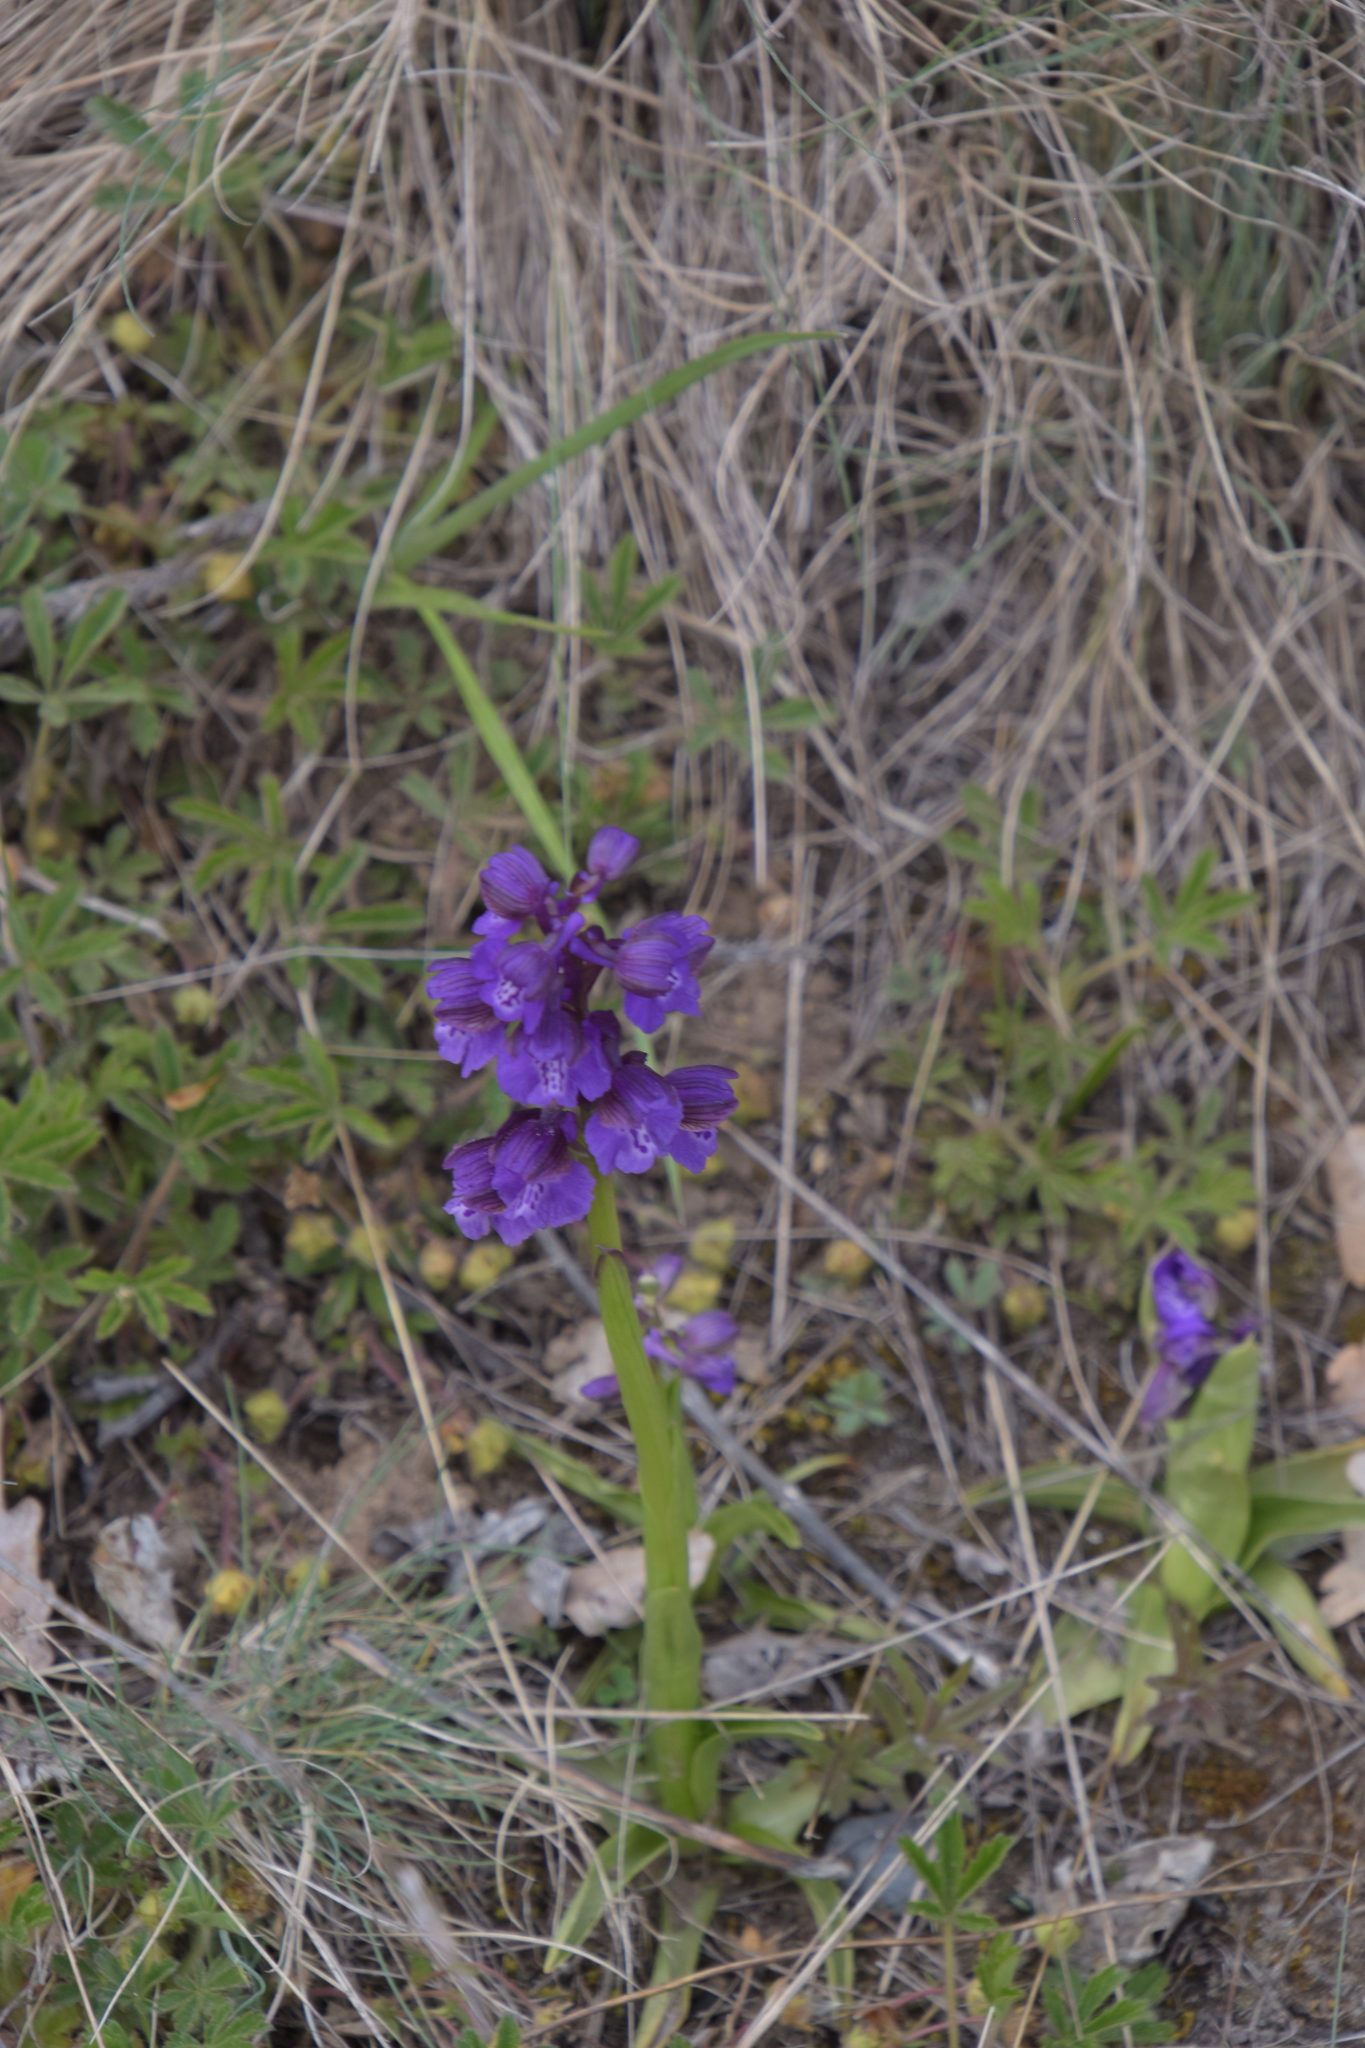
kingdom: Plantae
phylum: Tracheophyta
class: Liliopsida
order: Asparagales
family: Orchidaceae
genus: Anacamptis
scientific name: Anacamptis morio
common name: Green-winged orchid
